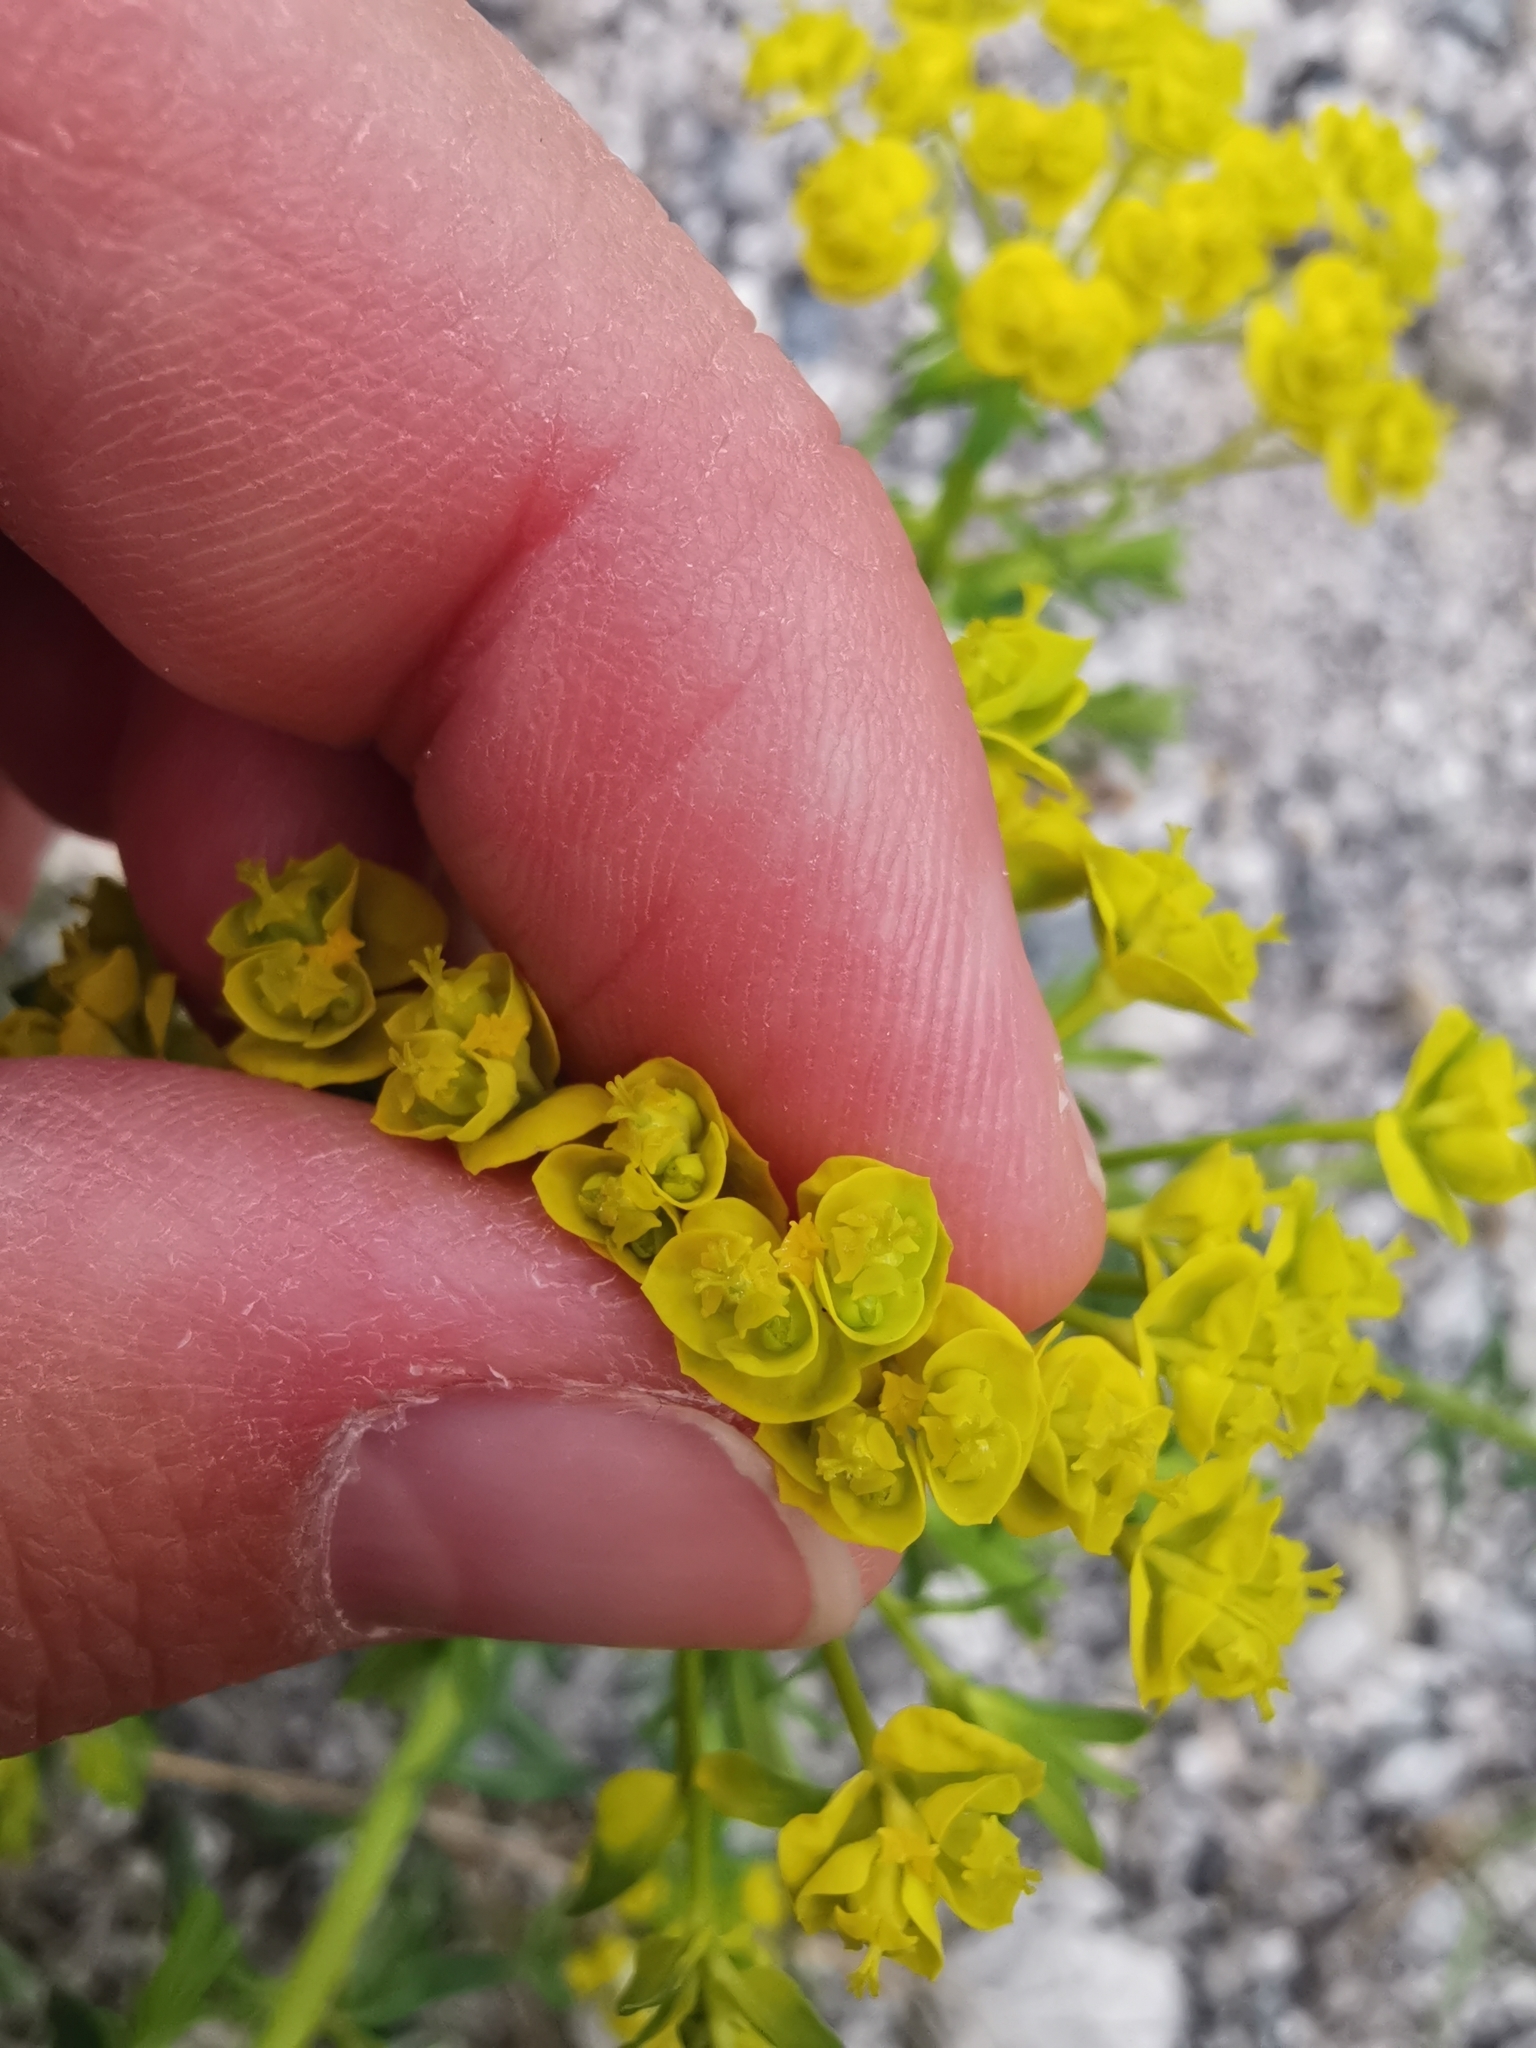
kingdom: Plantae
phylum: Tracheophyta
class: Magnoliopsida
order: Malpighiales
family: Euphorbiaceae
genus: Euphorbia
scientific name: Euphorbia cyparissias
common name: Cypress spurge
